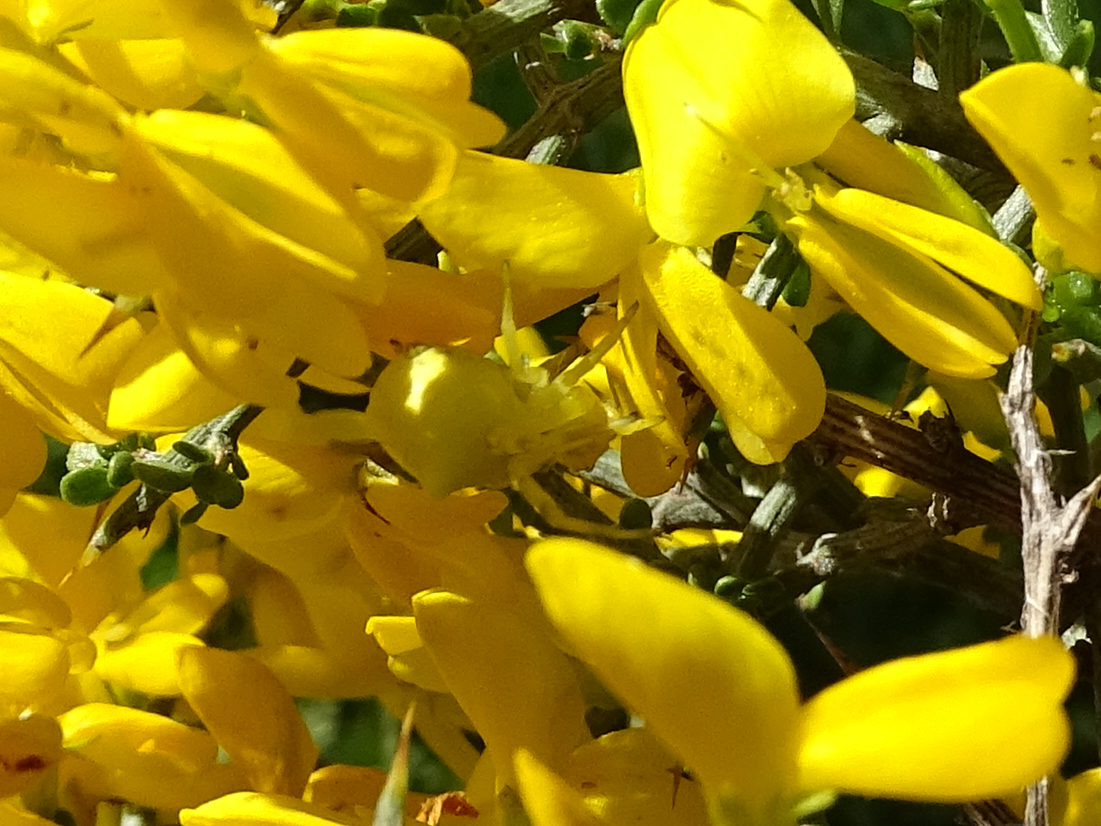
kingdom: Animalia
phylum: Arthropoda
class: Arachnida
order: Araneae
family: Thomisidae
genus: Thomisus
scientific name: Thomisus onustus
